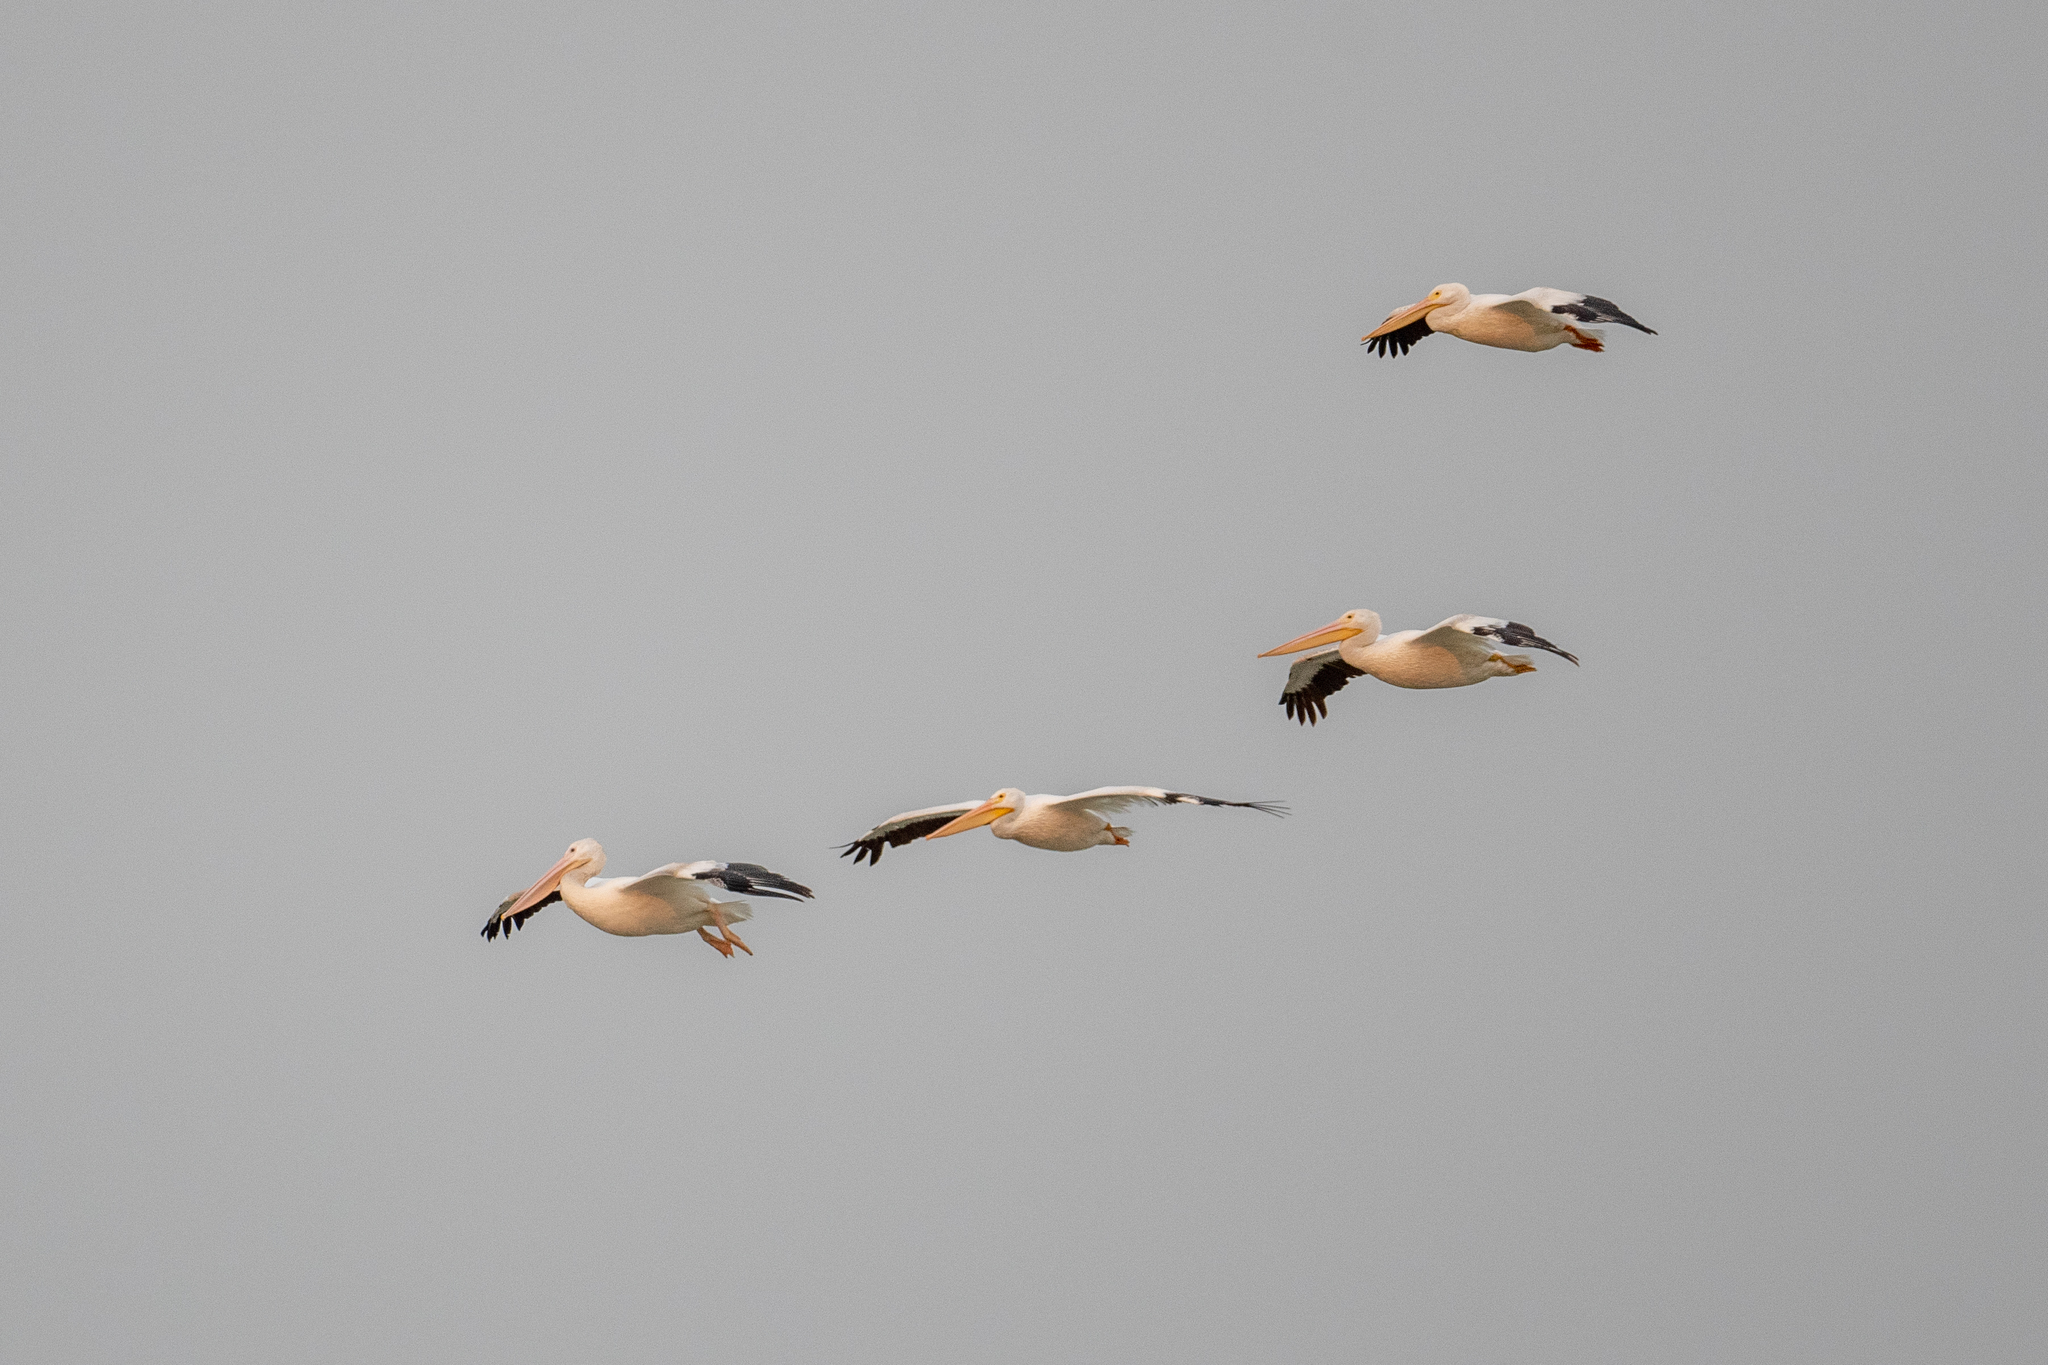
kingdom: Animalia
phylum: Chordata
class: Aves
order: Pelecaniformes
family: Pelecanidae
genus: Pelecanus
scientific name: Pelecanus erythrorhynchos
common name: American white pelican
